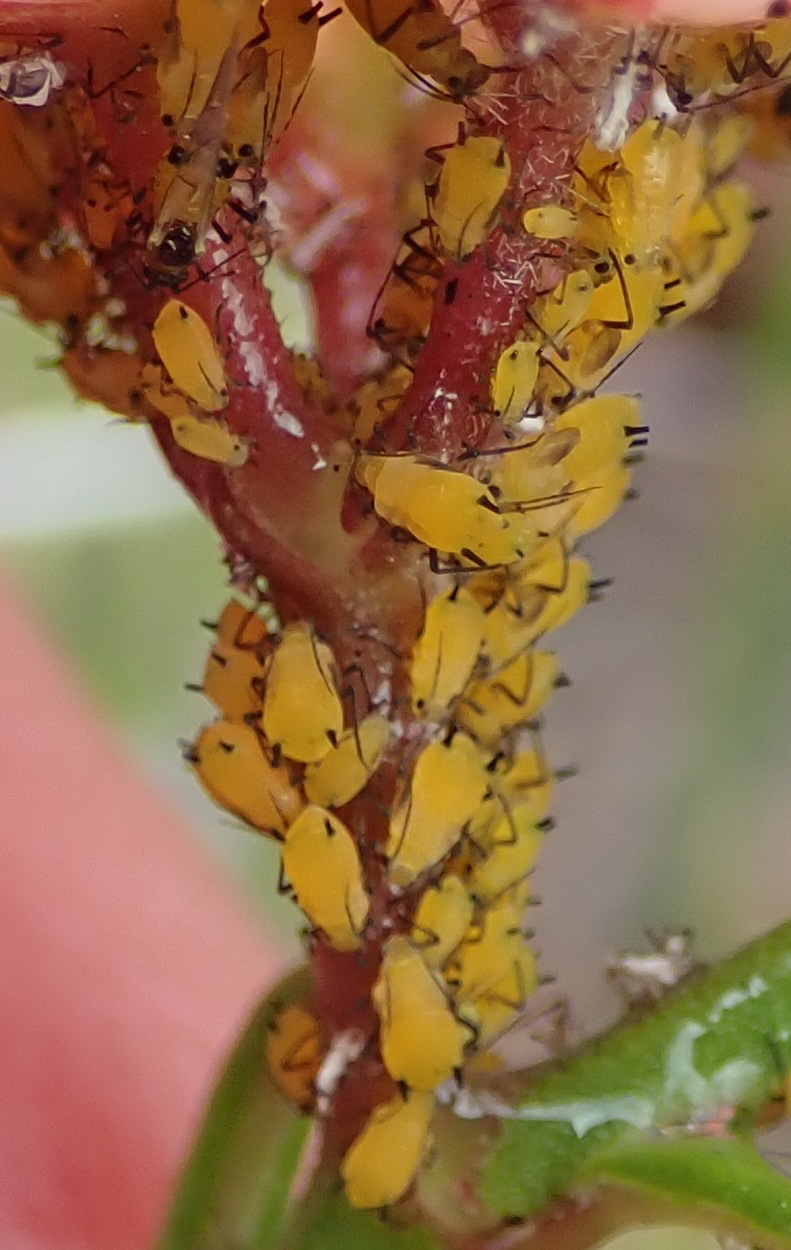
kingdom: Animalia
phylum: Arthropoda
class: Insecta
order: Hemiptera
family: Aphididae
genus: Aphis
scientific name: Aphis nerii
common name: Oleander aphid
